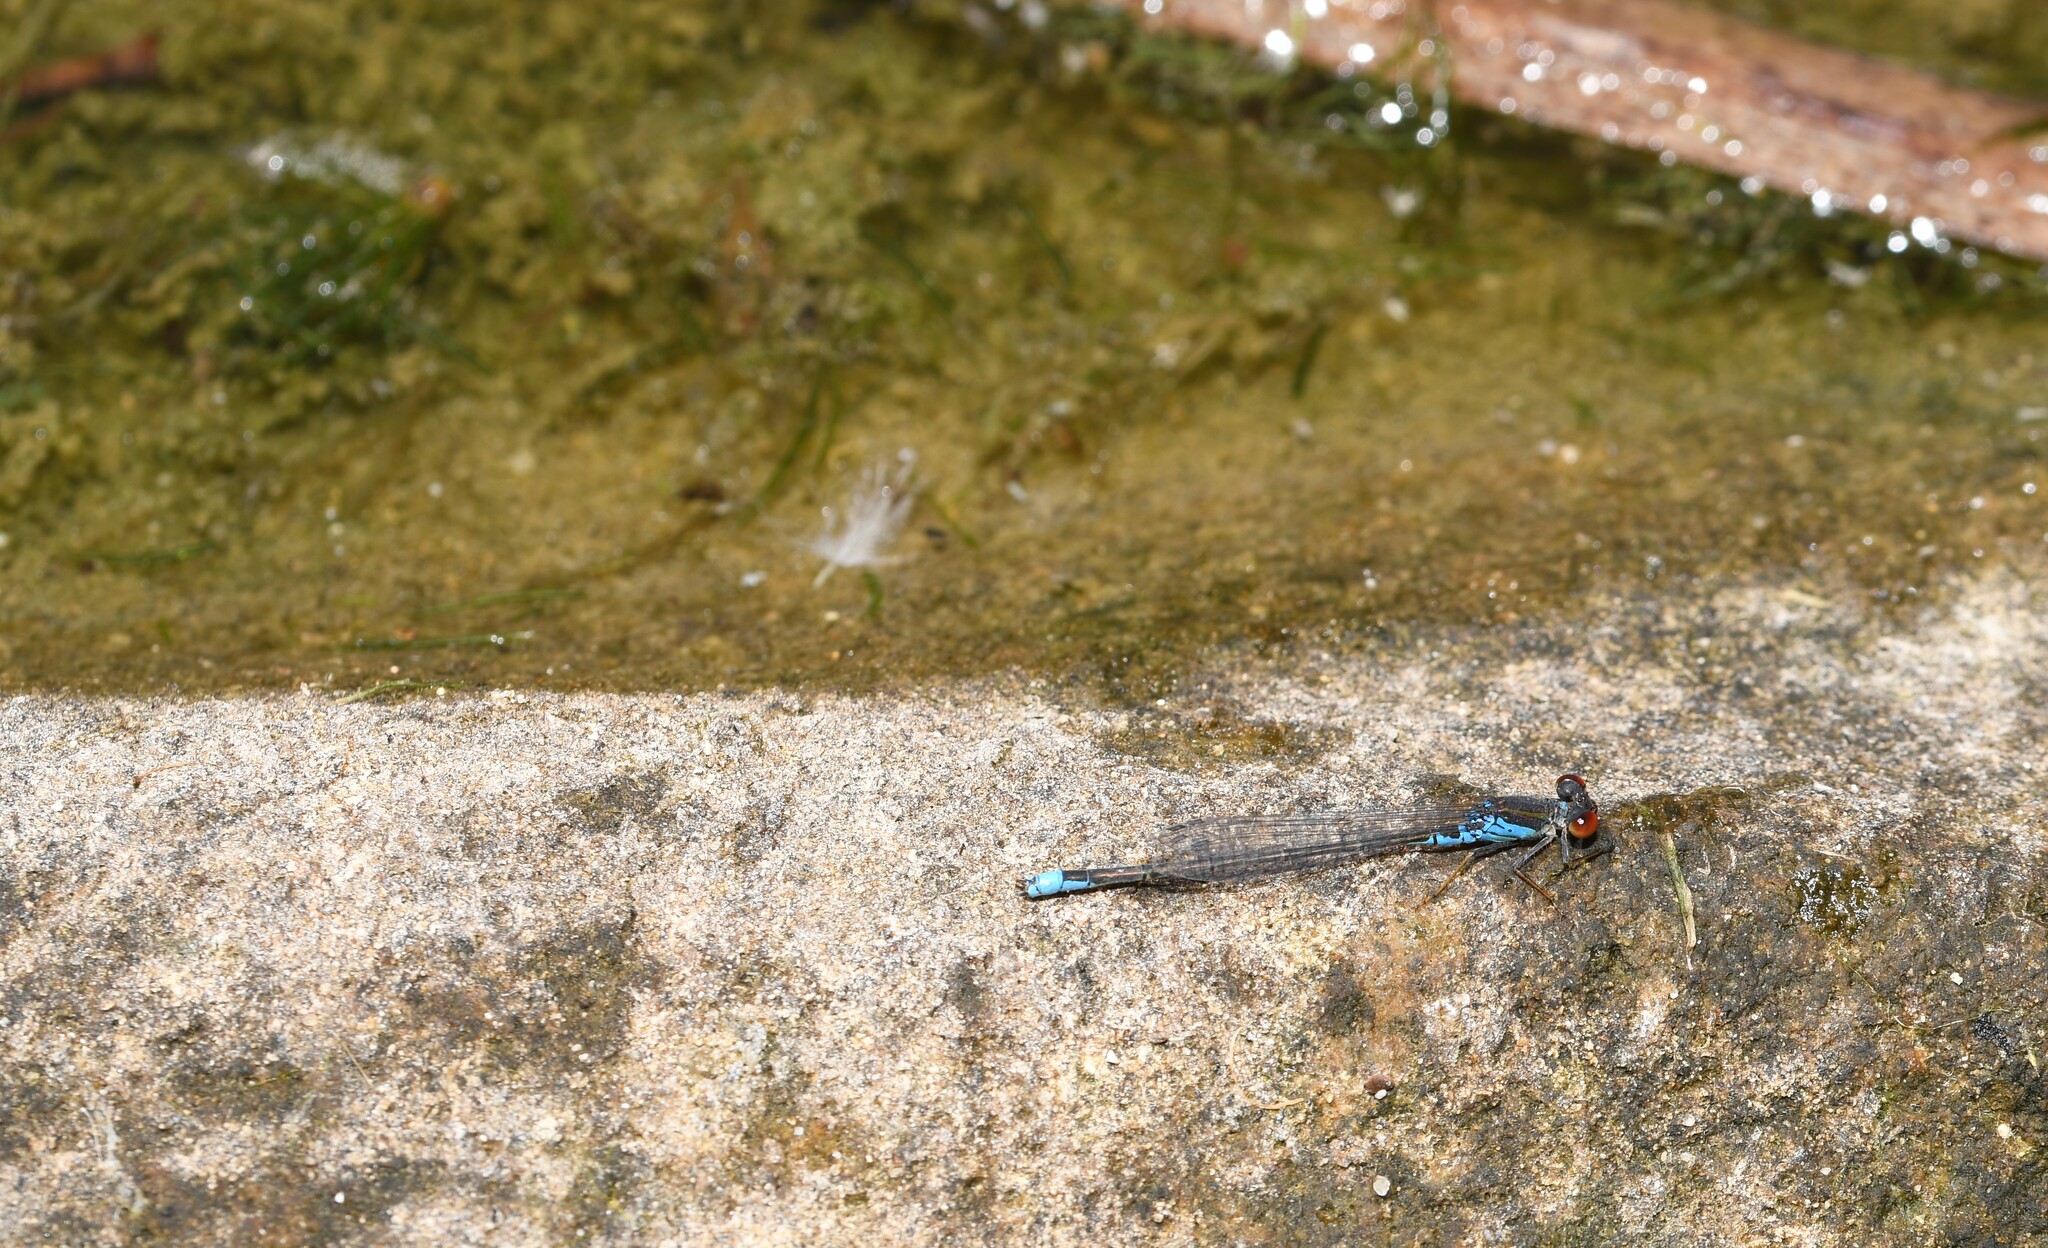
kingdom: Animalia
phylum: Arthropoda
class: Insecta
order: Odonata
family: Coenagrionidae
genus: Erythromma
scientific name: Erythromma viridulum
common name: Small red-eyed damselfly
